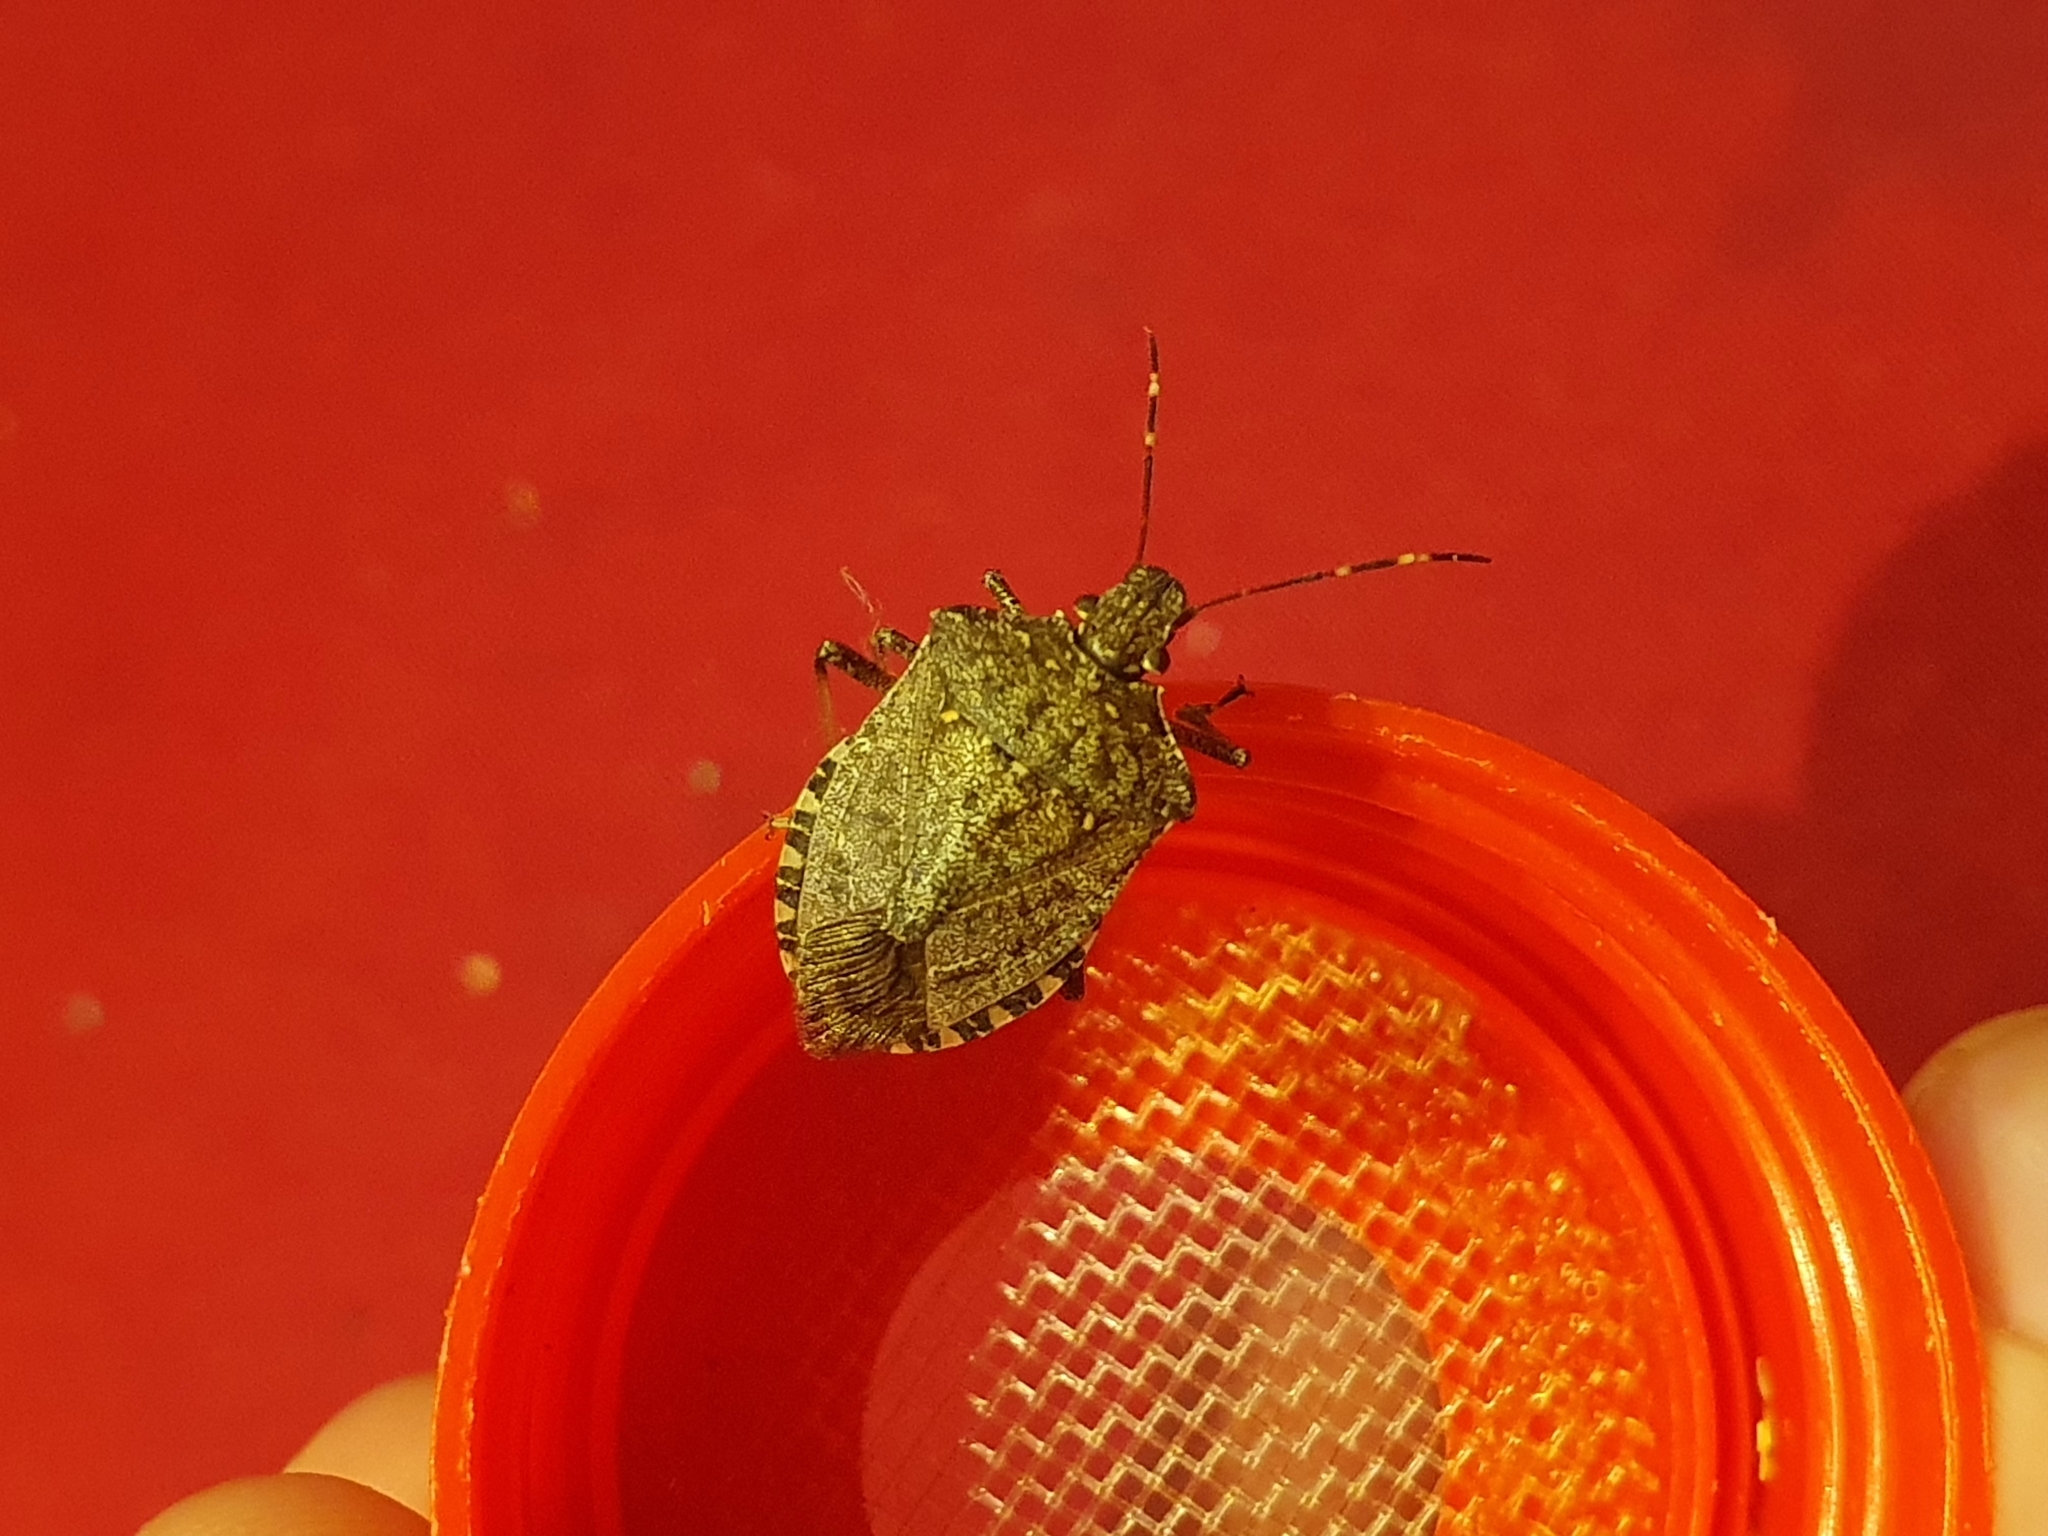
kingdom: Animalia
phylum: Arthropoda
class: Insecta
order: Hemiptera
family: Pentatomidae
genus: Halyomorpha
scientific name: Halyomorpha halys
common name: Brown marmorated stink bug
